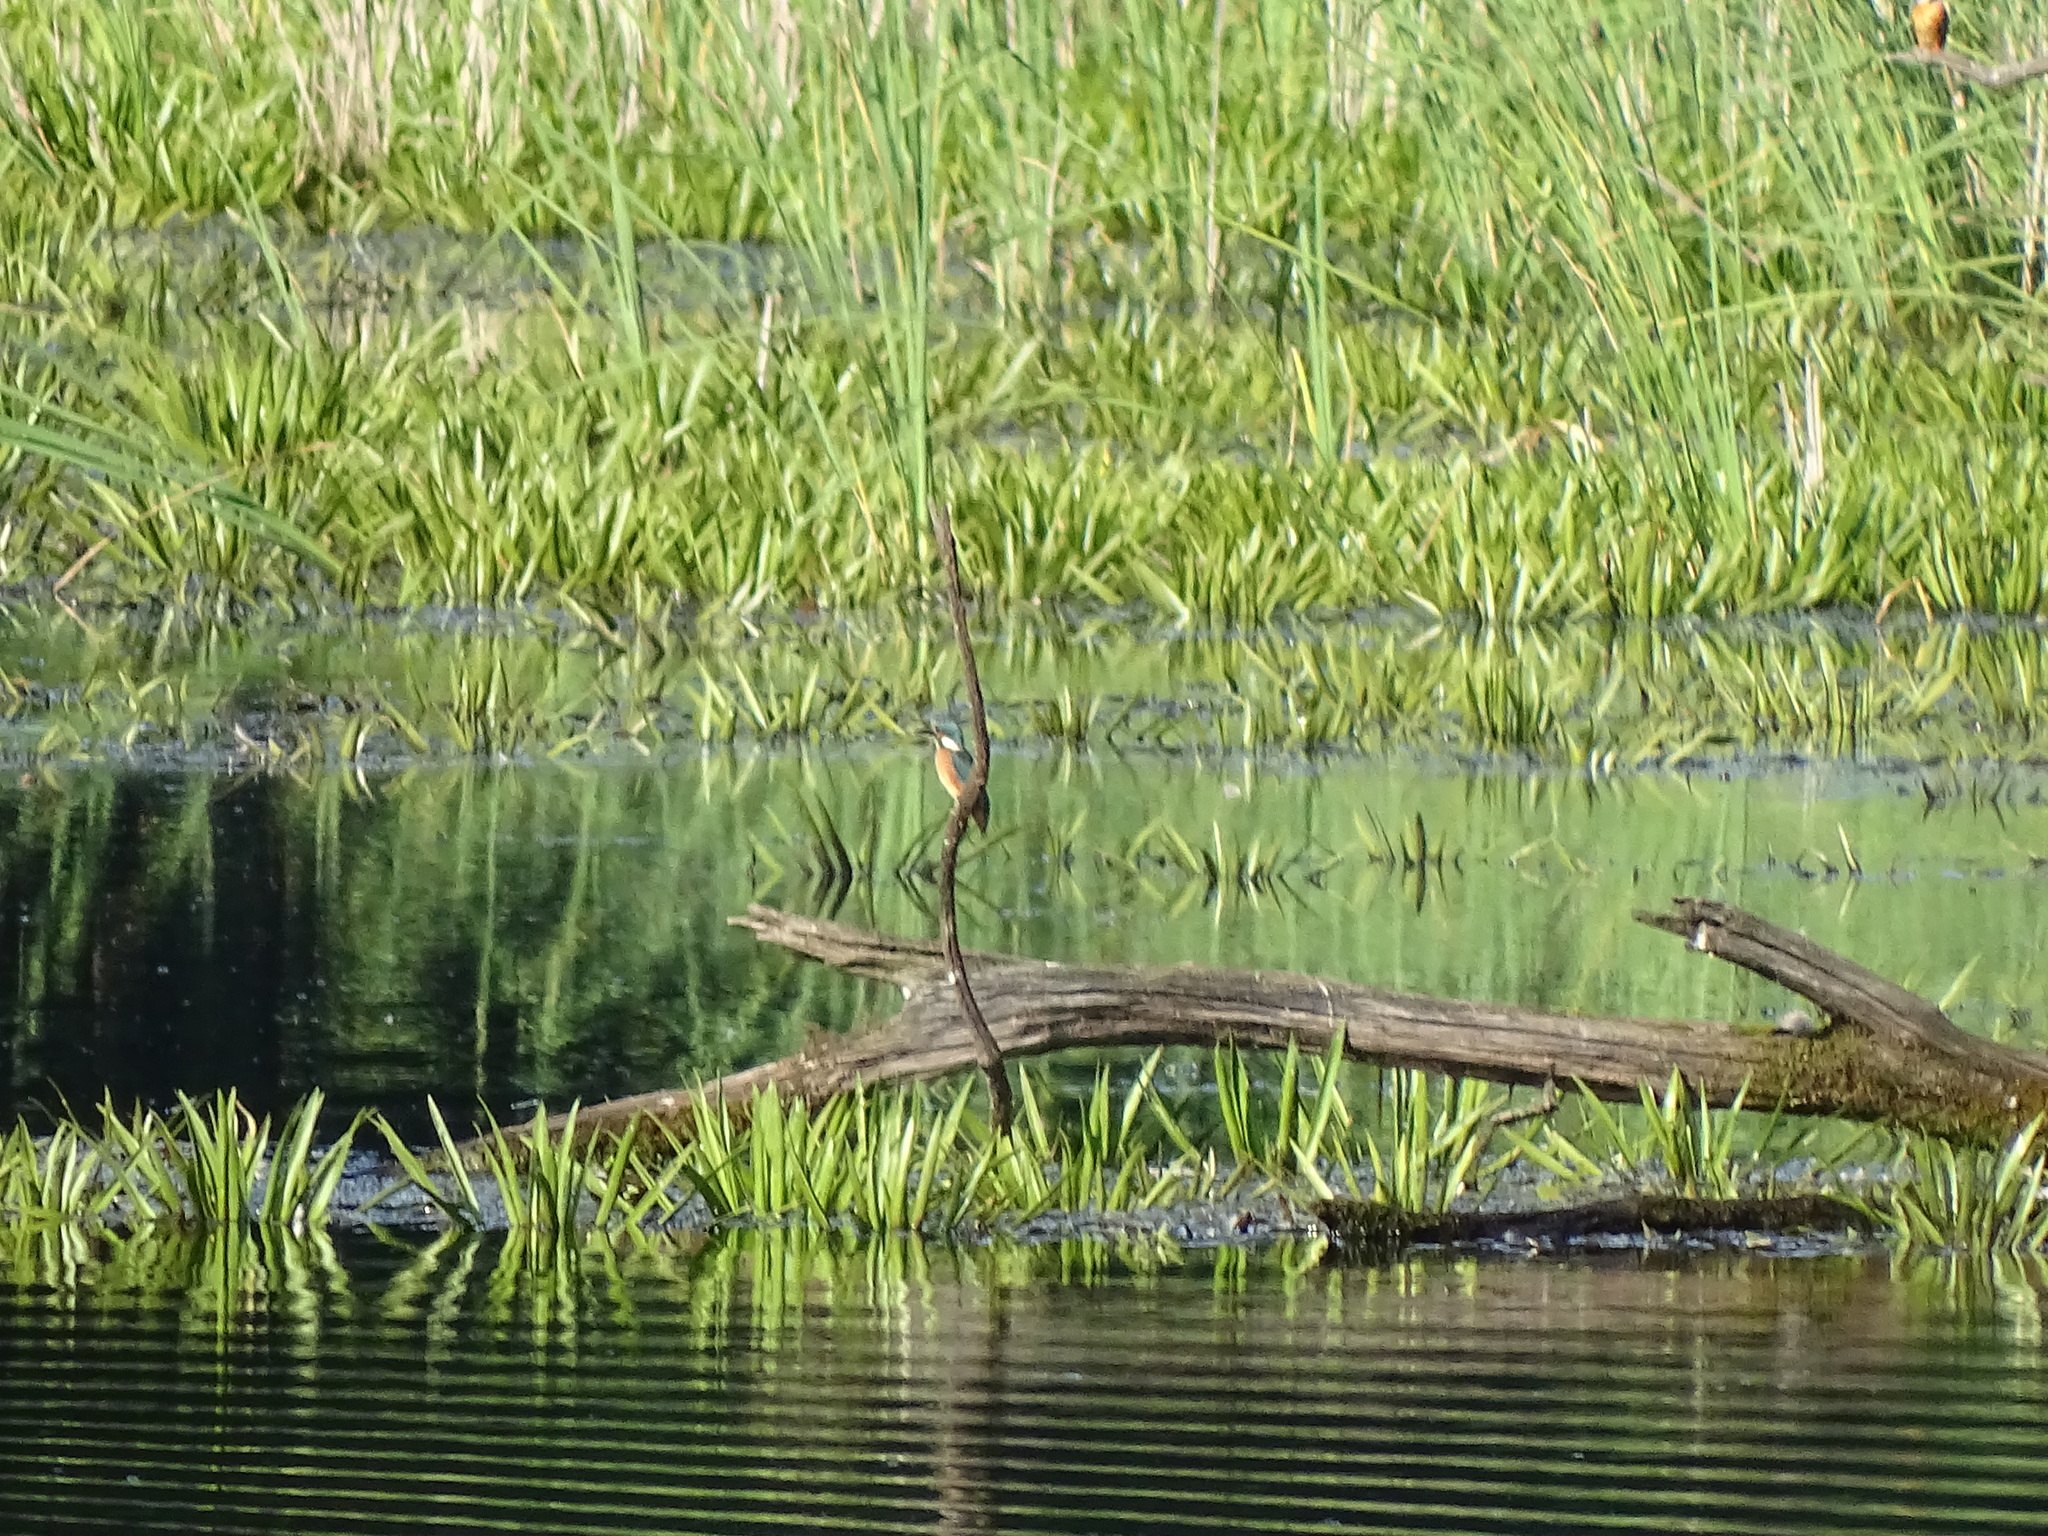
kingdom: Animalia
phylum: Chordata
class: Aves
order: Coraciiformes
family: Alcedinidae
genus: Alcedo
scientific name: Alcedo atthis
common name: Common kingfisher
